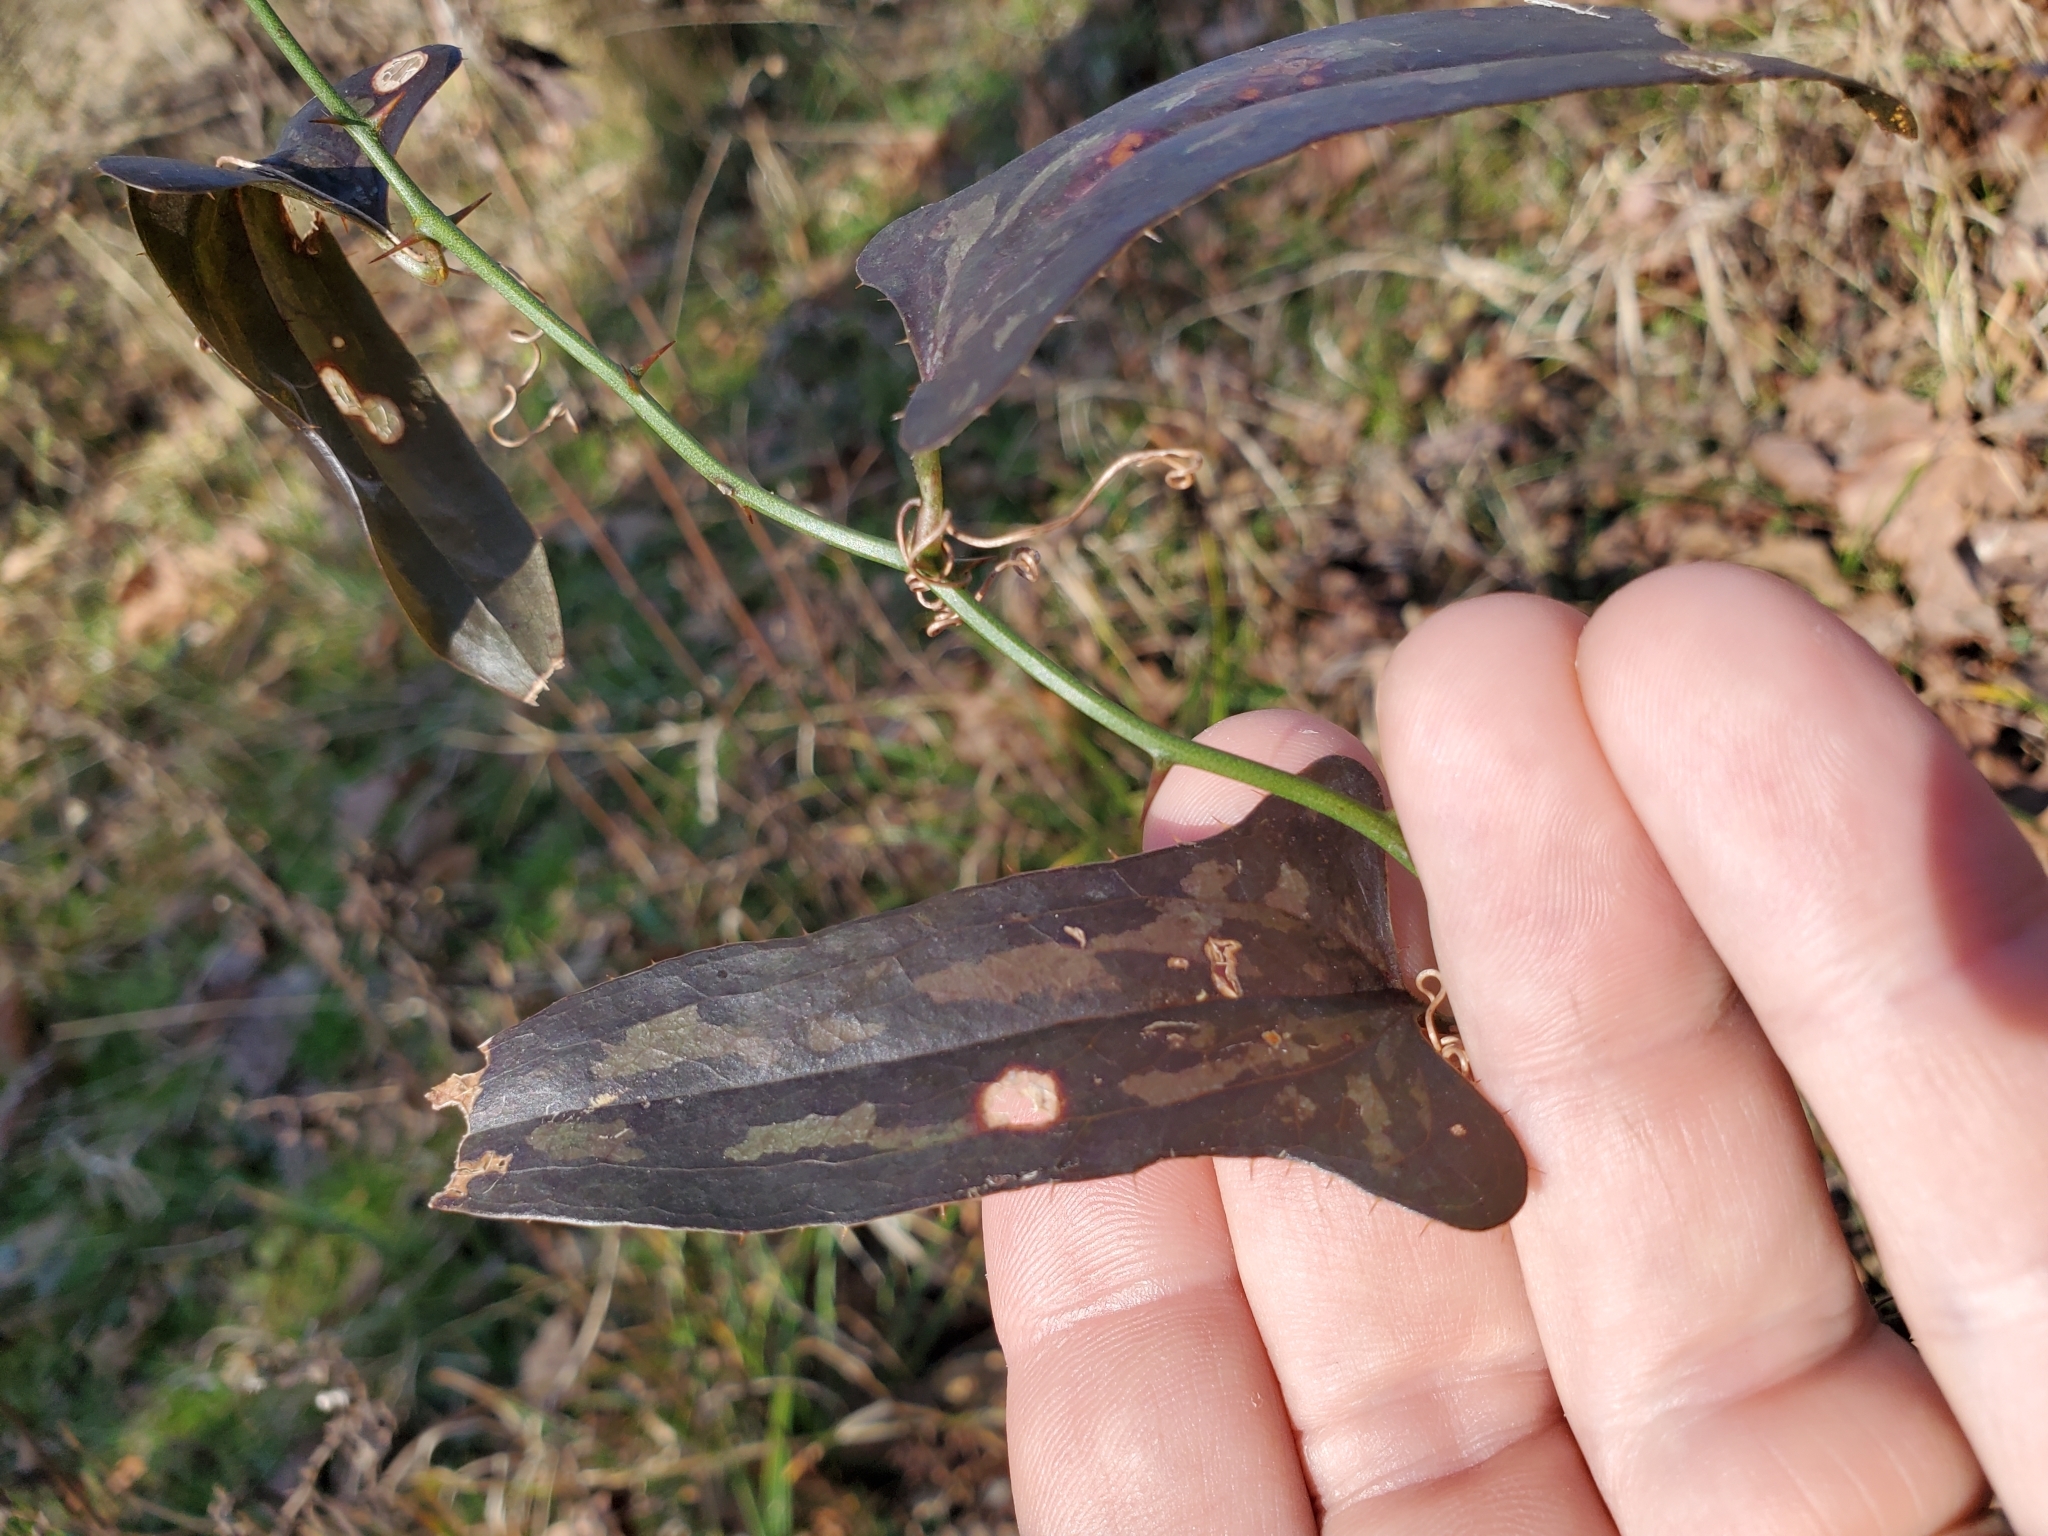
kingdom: Plantae
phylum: Tracheophyta
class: Liliopsida
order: Liliales
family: Smilacaceae
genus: Smilax
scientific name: Smilax bona-nox
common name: Catbrier
